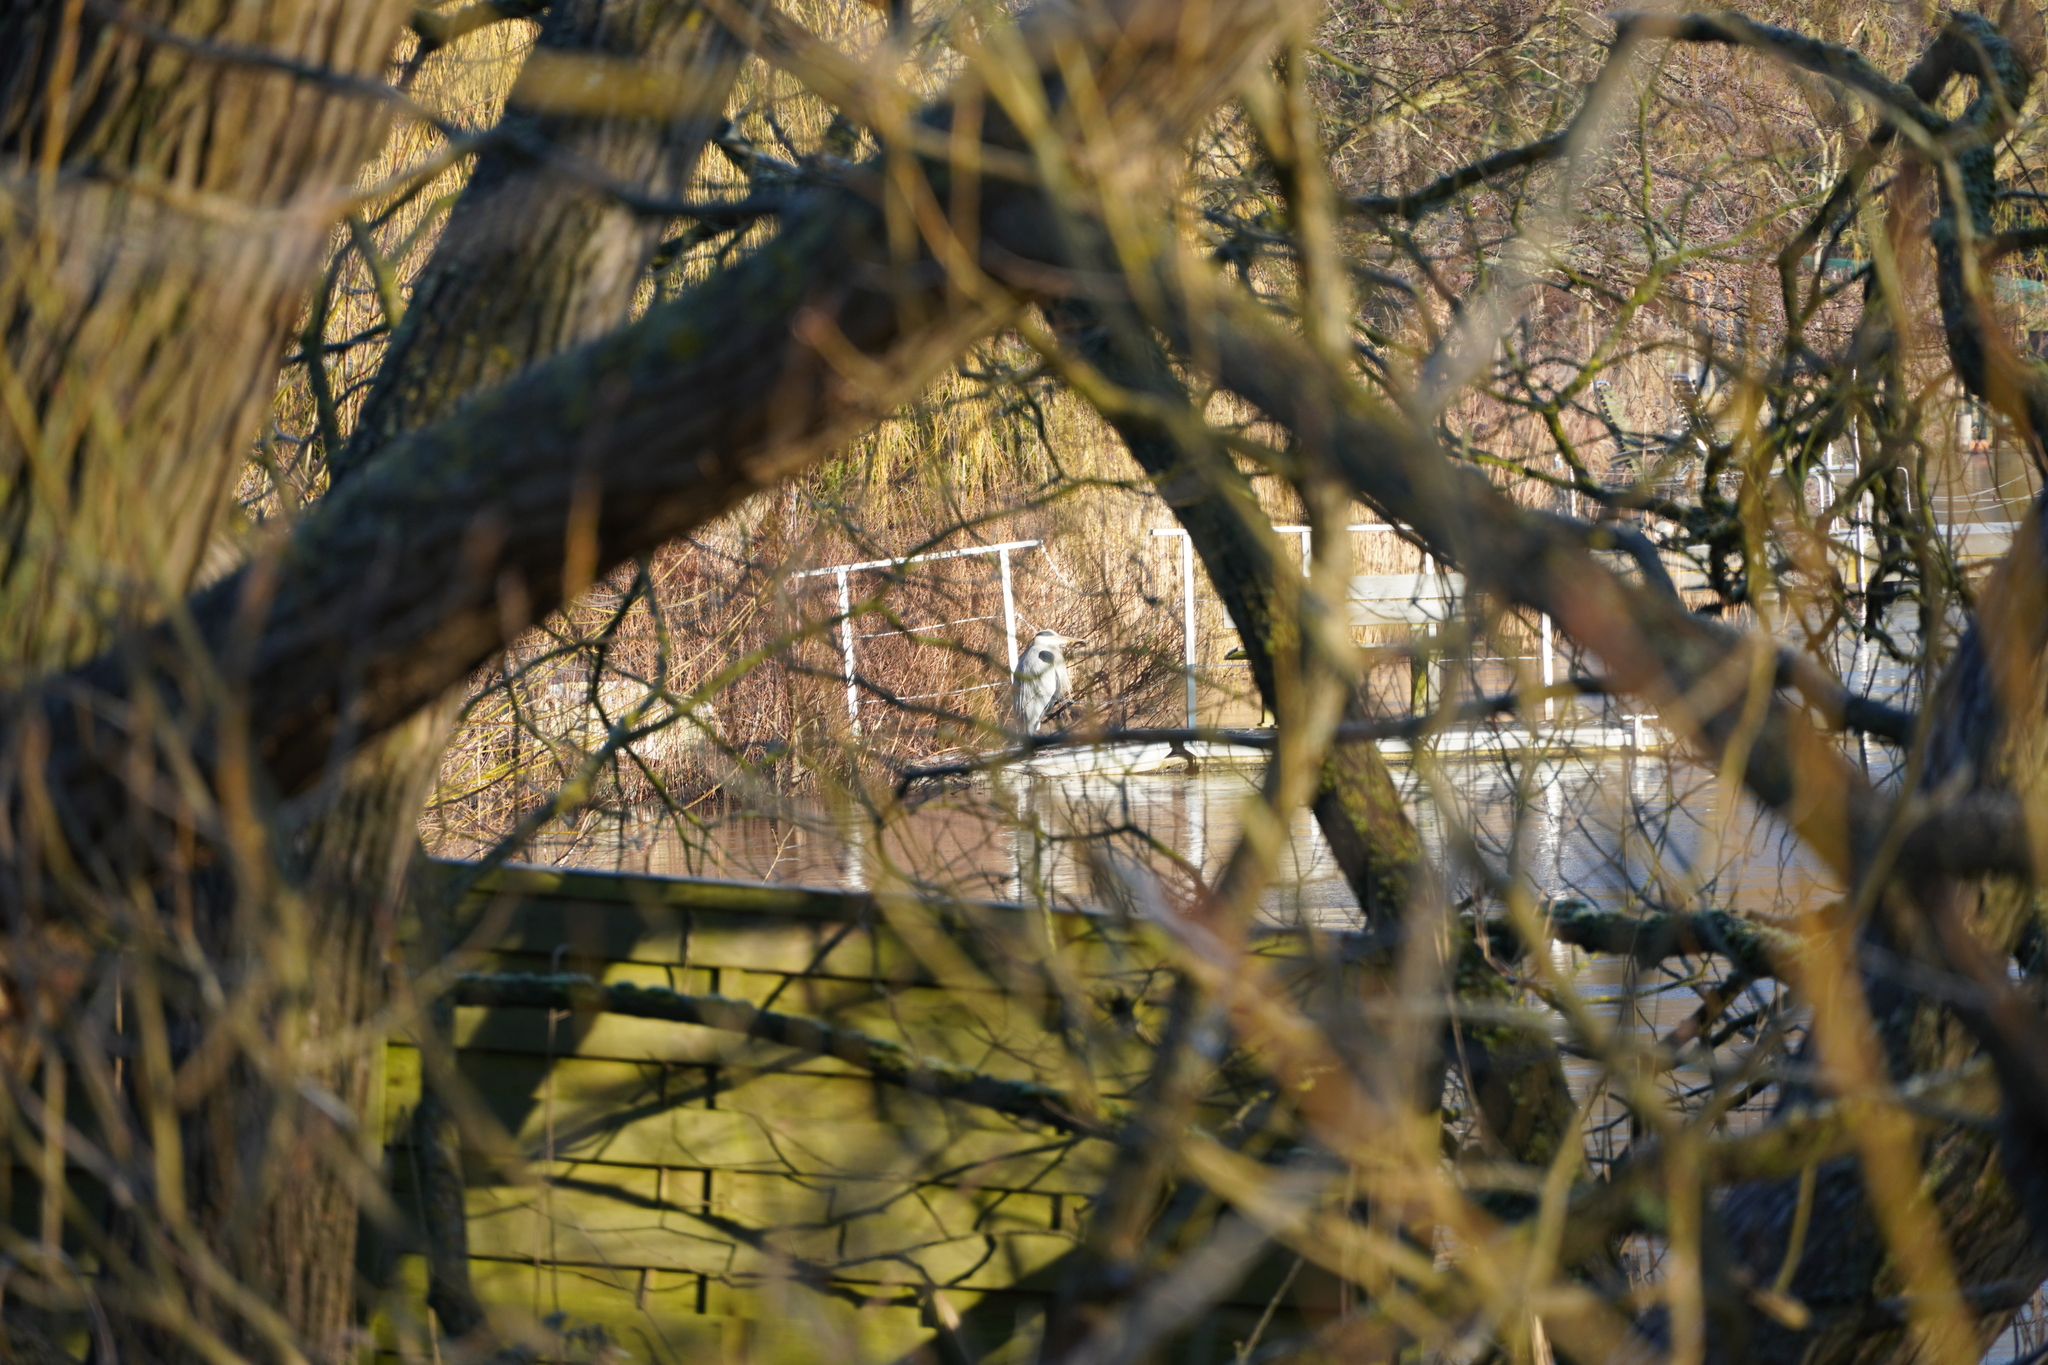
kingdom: Animalia
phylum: Chordata
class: Aves
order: Pelecaniformes
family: Ardeidae
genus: Ardea
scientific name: Ardea cinerea
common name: Grey heron
